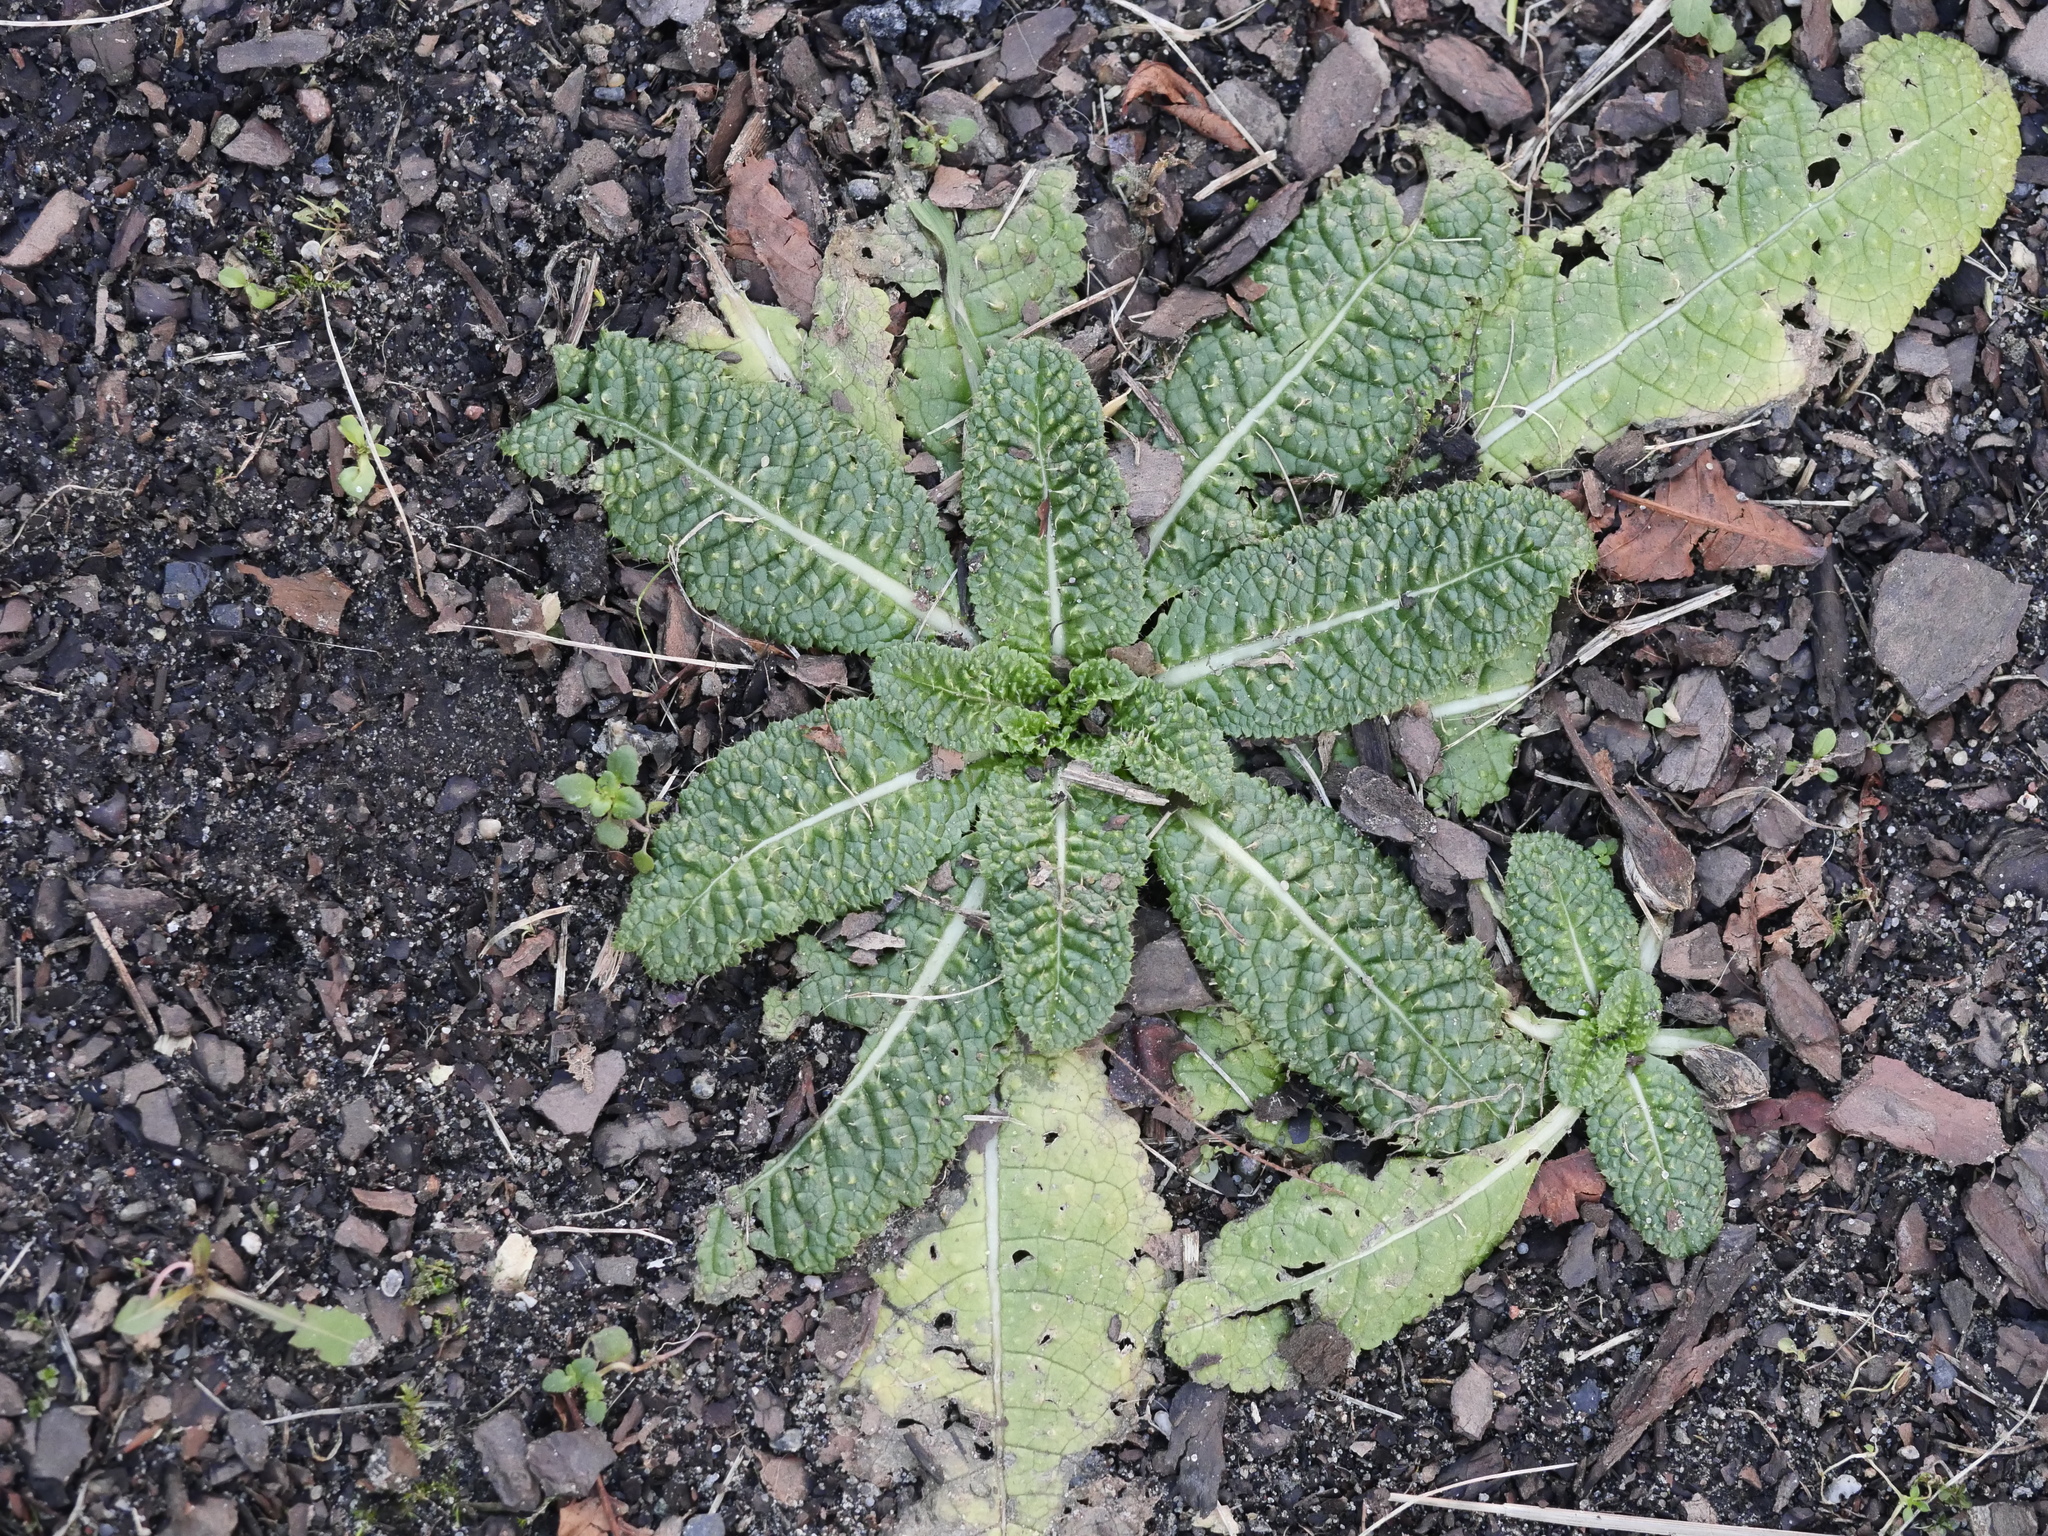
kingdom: Plantae
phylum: Tracheophyta
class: Magnoliopsida
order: Dipsacales
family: Caprifoliaceae
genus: Dipsacus
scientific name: Dipsacus fullonum
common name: Teasel
